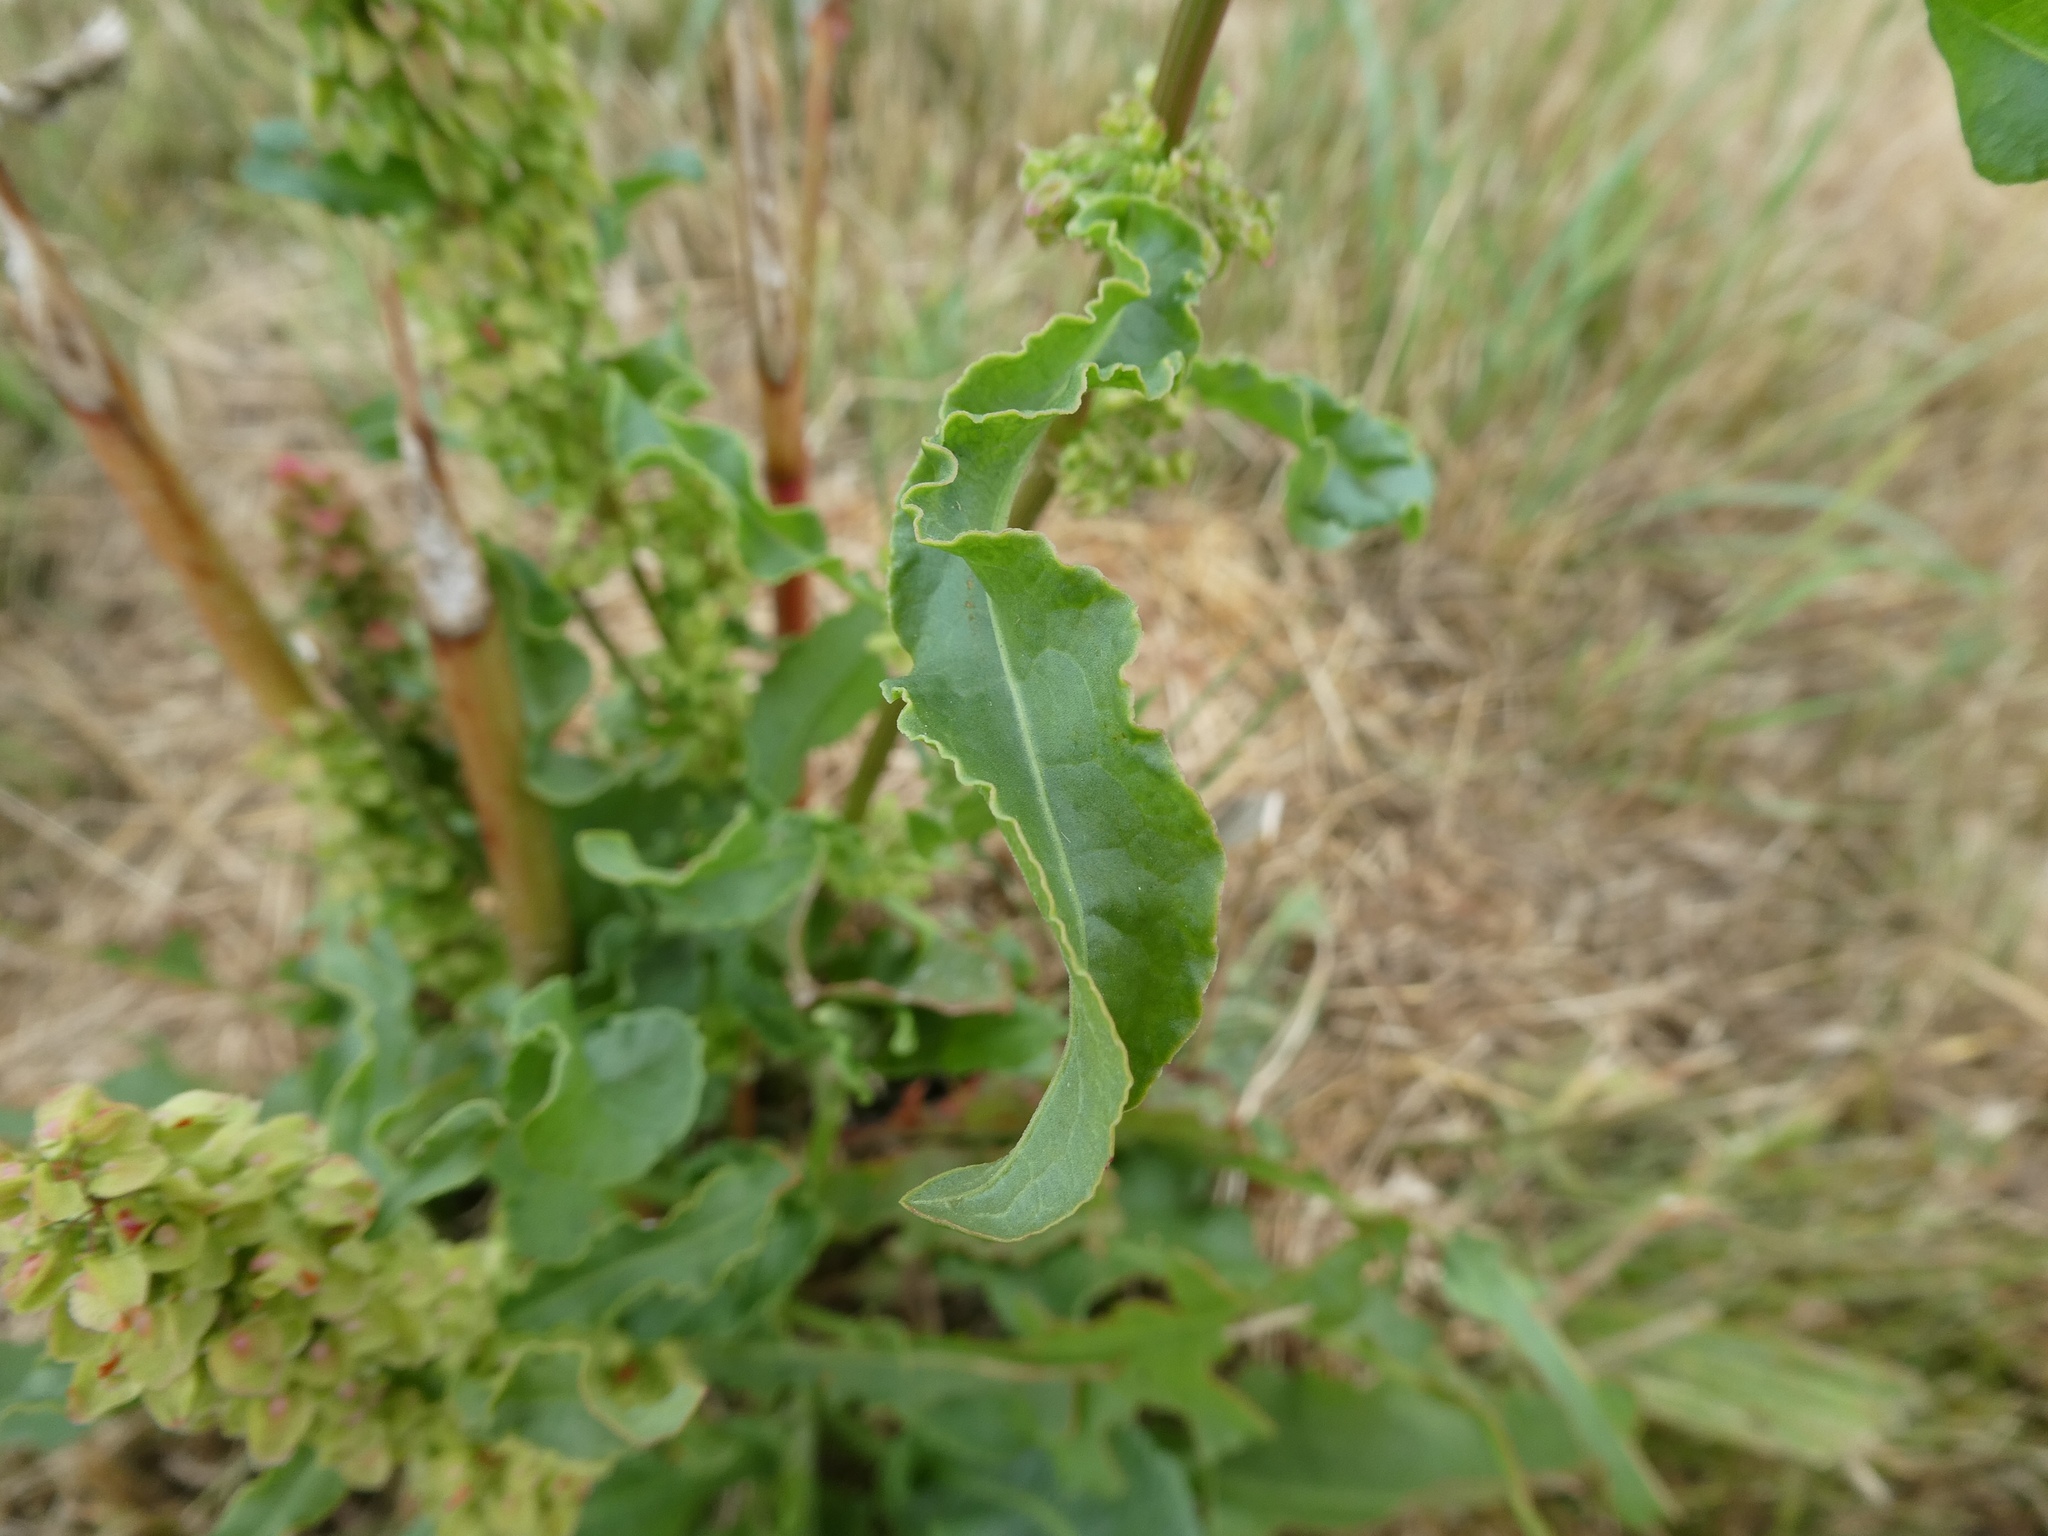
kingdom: Plantae
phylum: Tracheophyta
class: Magnoliopsida
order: Caryophyllales
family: Polygonaceae
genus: Rumex
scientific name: Rumex crispus
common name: Curled dock
